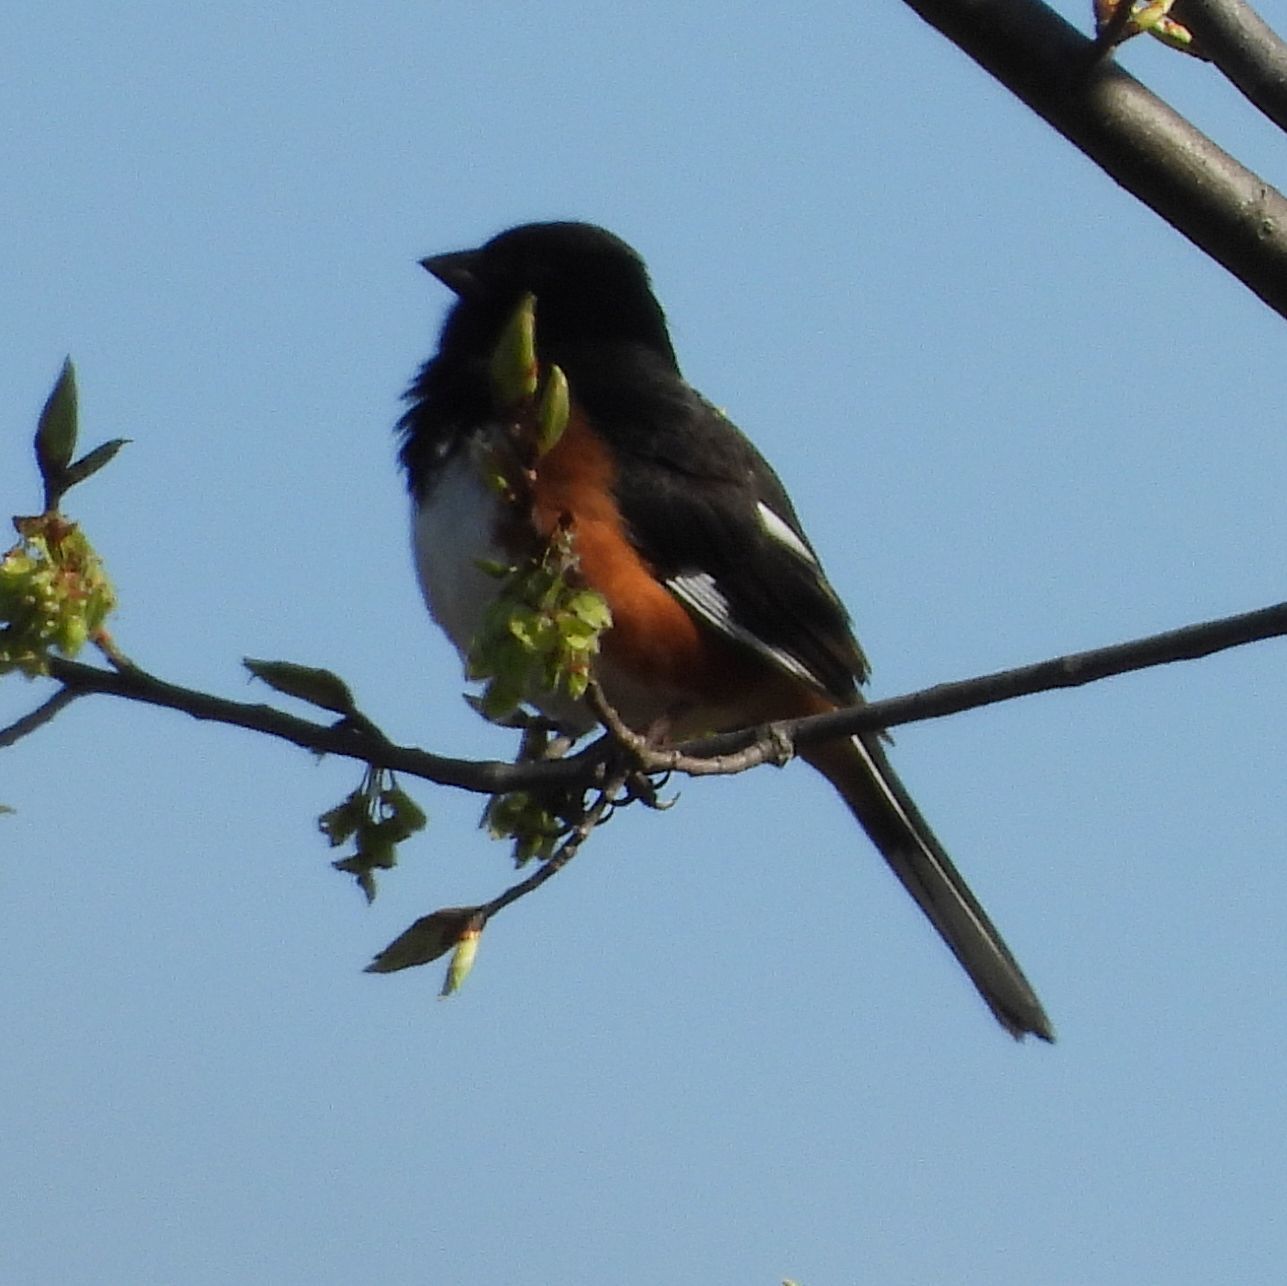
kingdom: Animalia
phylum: Chordata
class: Aves
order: Passeriformes
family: Passerellidae
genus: Pipilo
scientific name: Pipilo erythrophthalmus
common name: Eastern towhee
